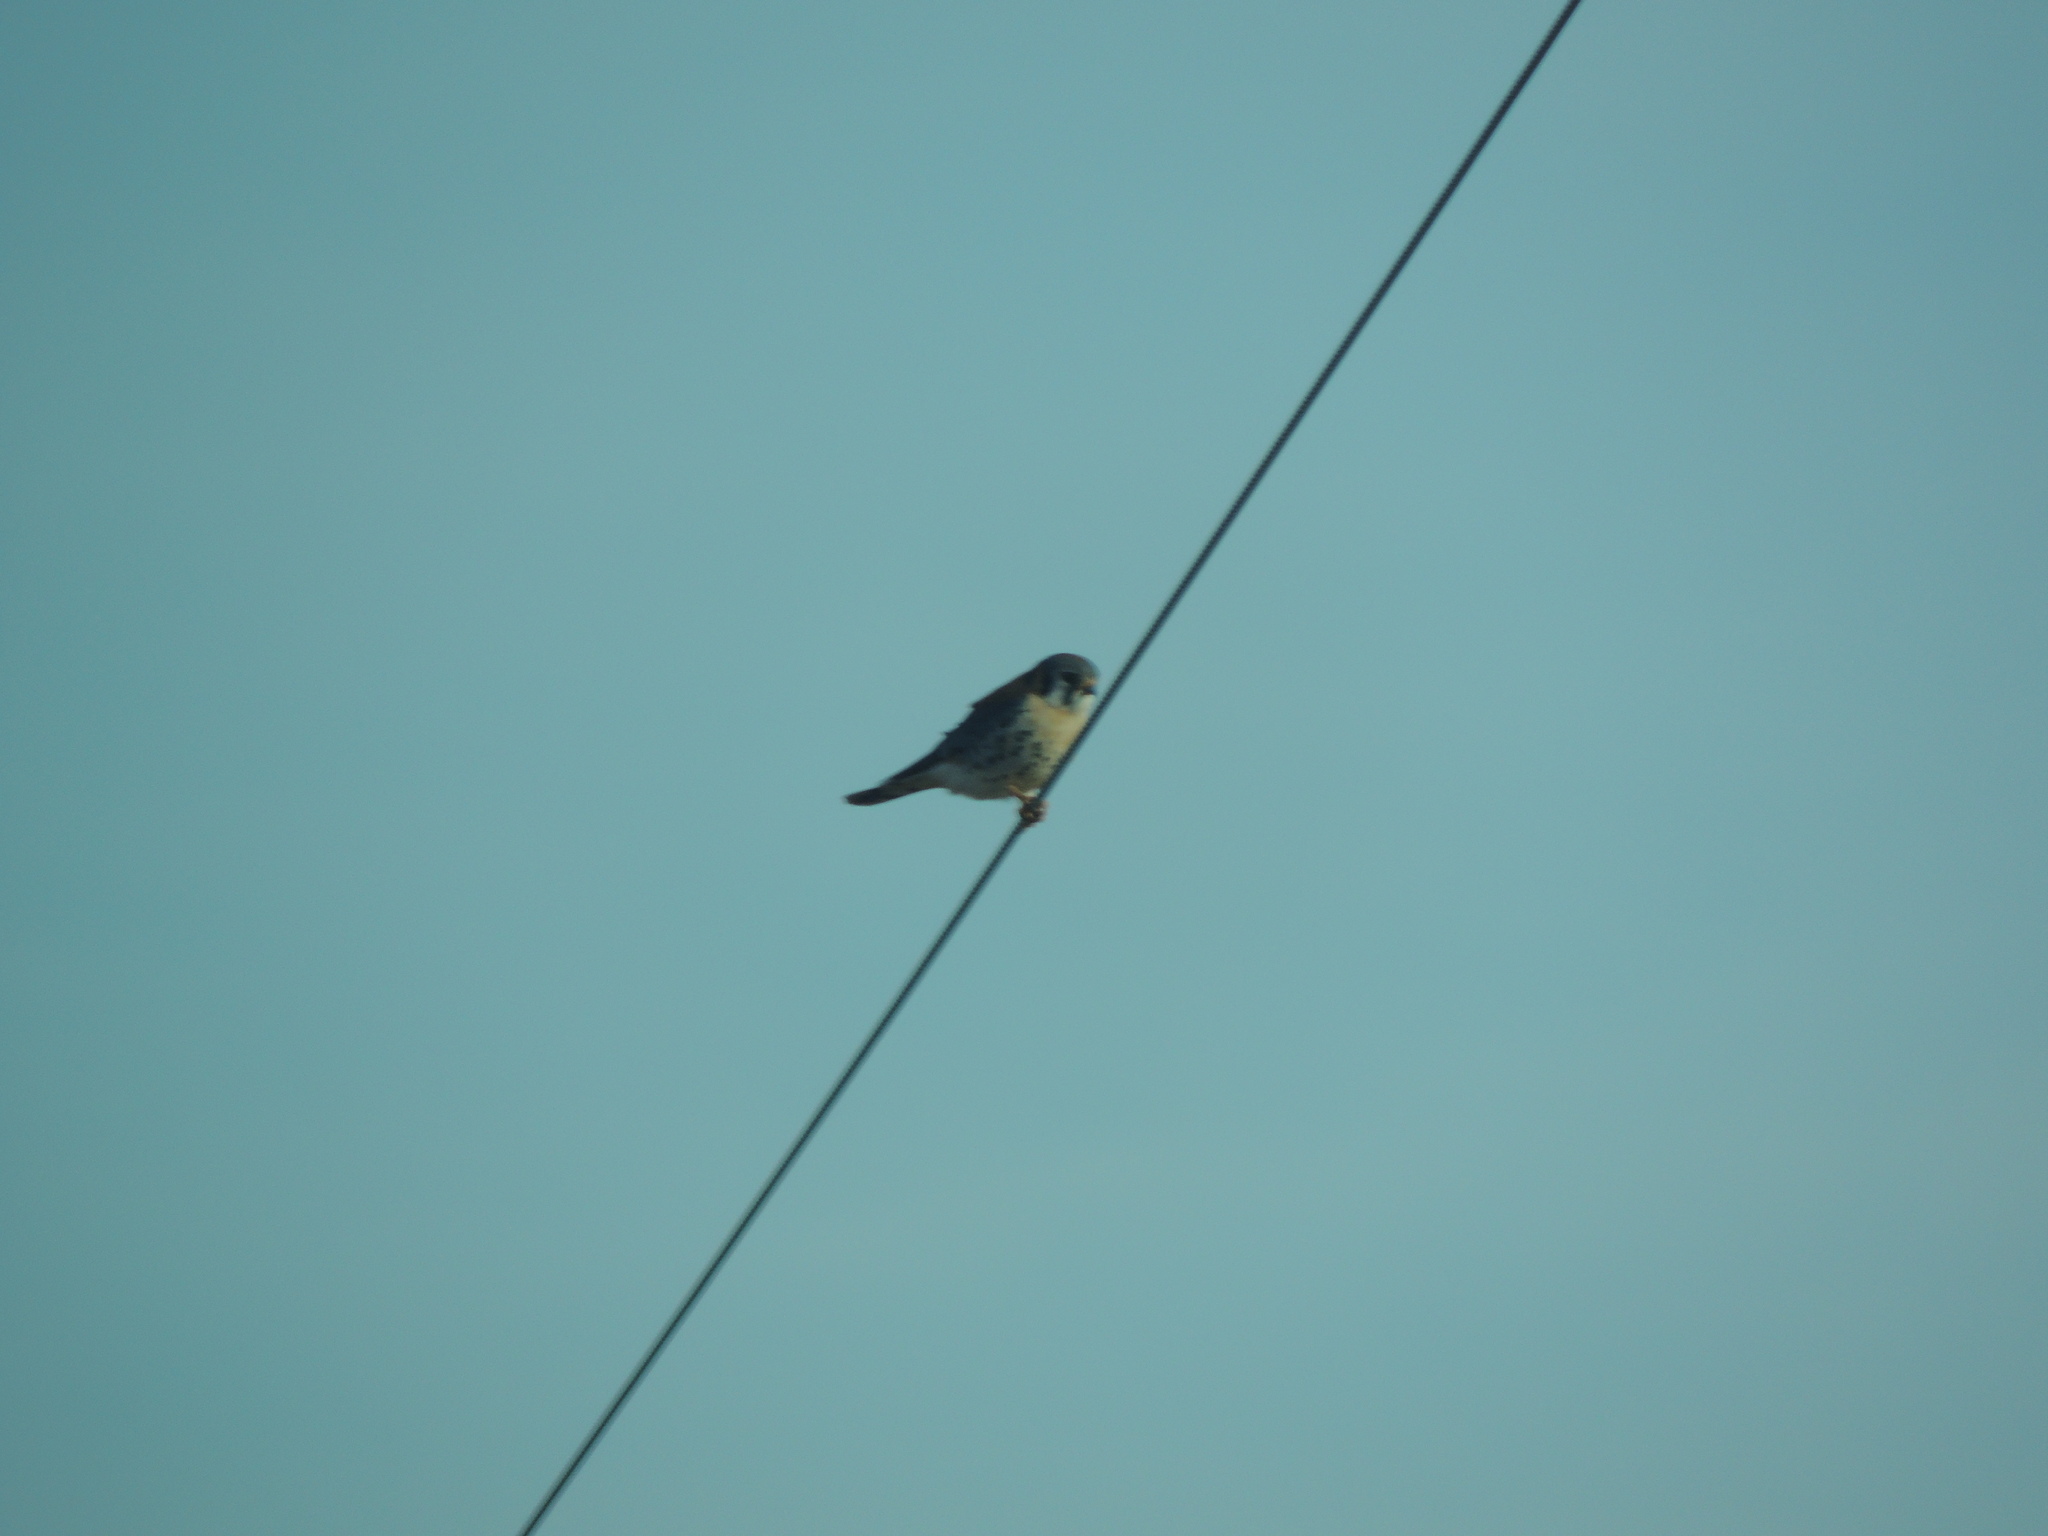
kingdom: Animalia
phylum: Chordata
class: Aves
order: Falconiformes
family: Falconidae
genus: Falco
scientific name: Falco sparverius
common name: American kestrel
